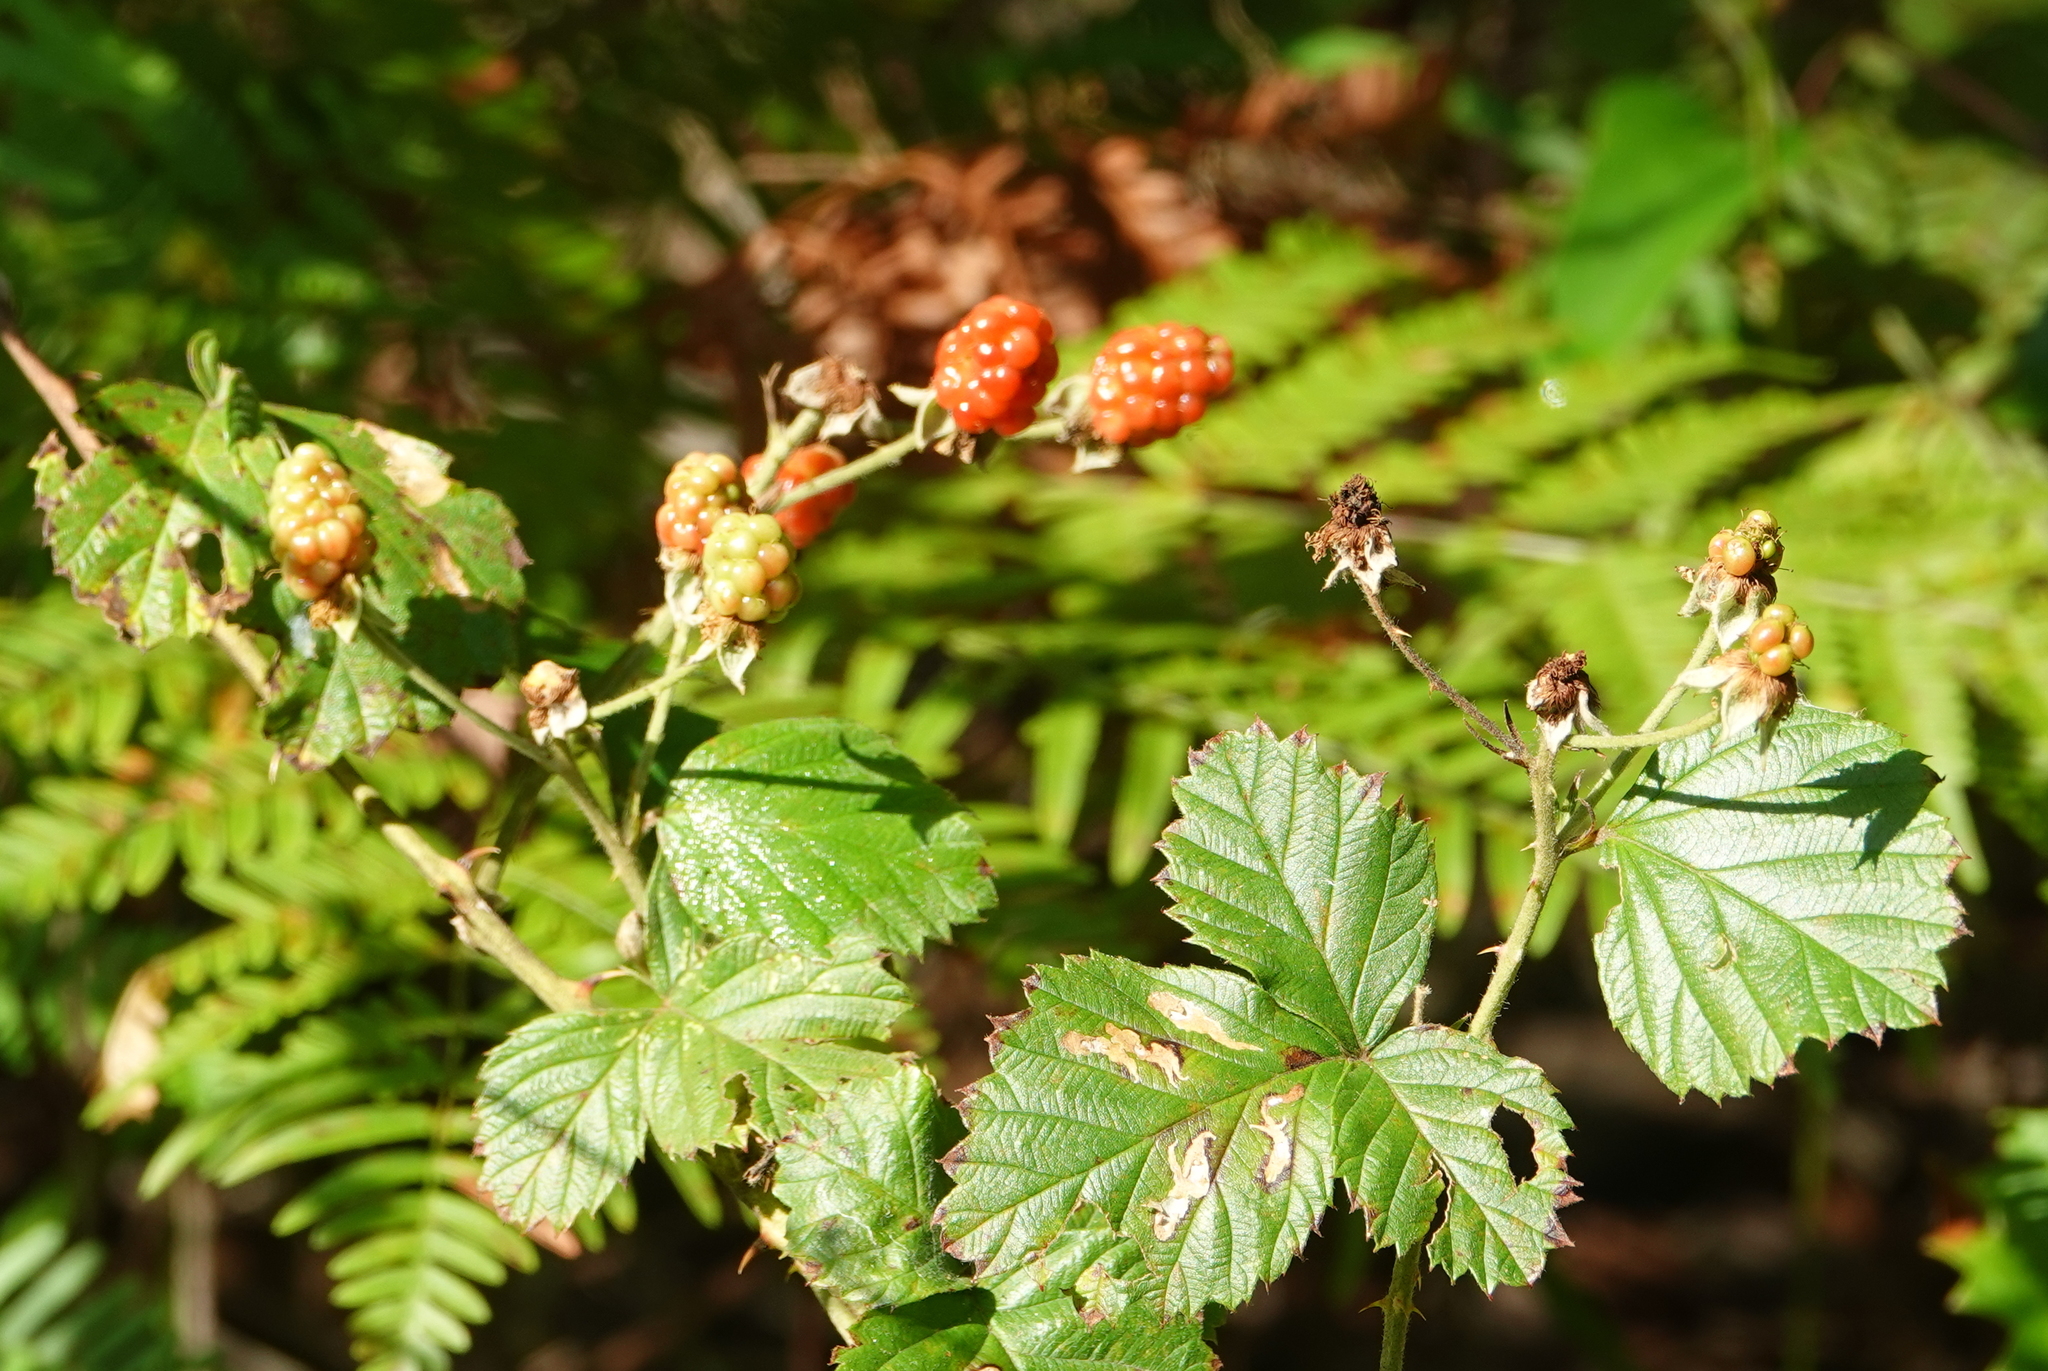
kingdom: Plantae
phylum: Tracheophyta
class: Magnoliopsida
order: Rosales
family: Rosaceae
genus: Rubus
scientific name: Rubus trivialis
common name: Southern dewberry
